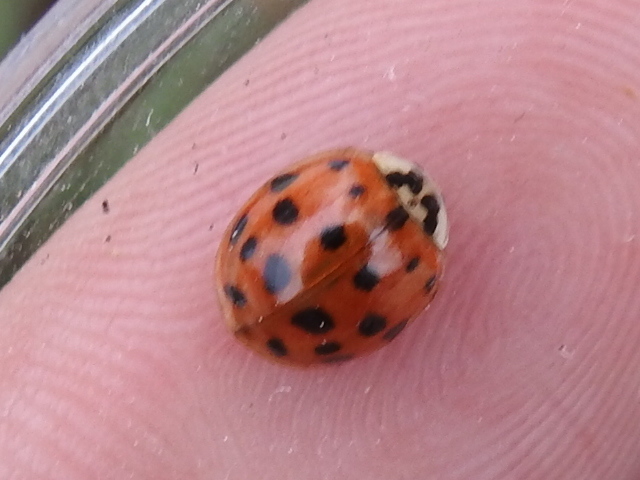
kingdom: Animalia
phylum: Arthropoda
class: Insecta
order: Coleoptera
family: Coccinellidae
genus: Harmonia
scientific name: Harmonia axyridis
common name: Harlequin ladybird
